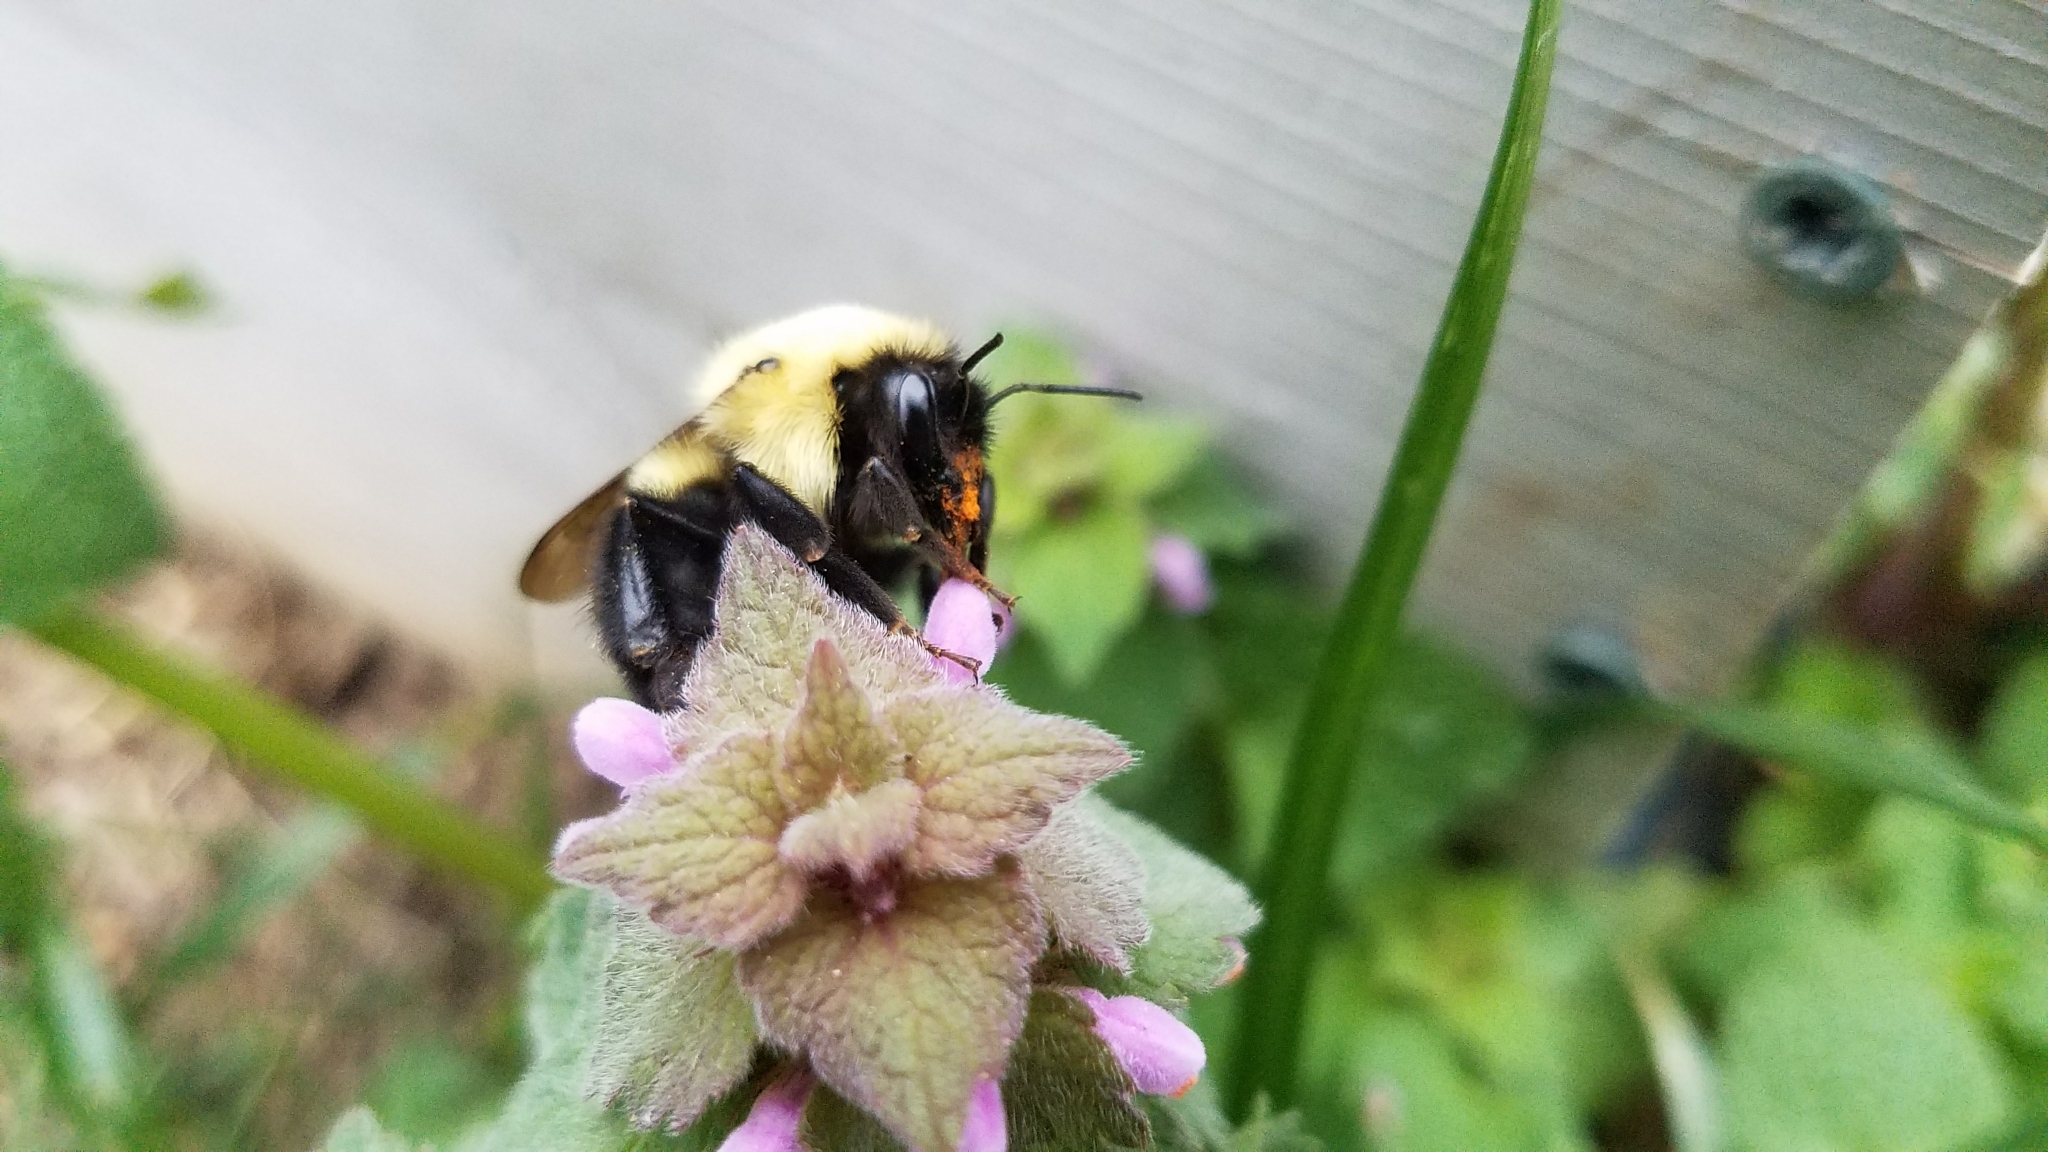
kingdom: Animalia
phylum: Arthropoda
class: Insecta
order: Hymenoptera
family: Apidae
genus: Bombus
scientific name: Bombus bimaculatus
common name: Two-spotted bumble bee
